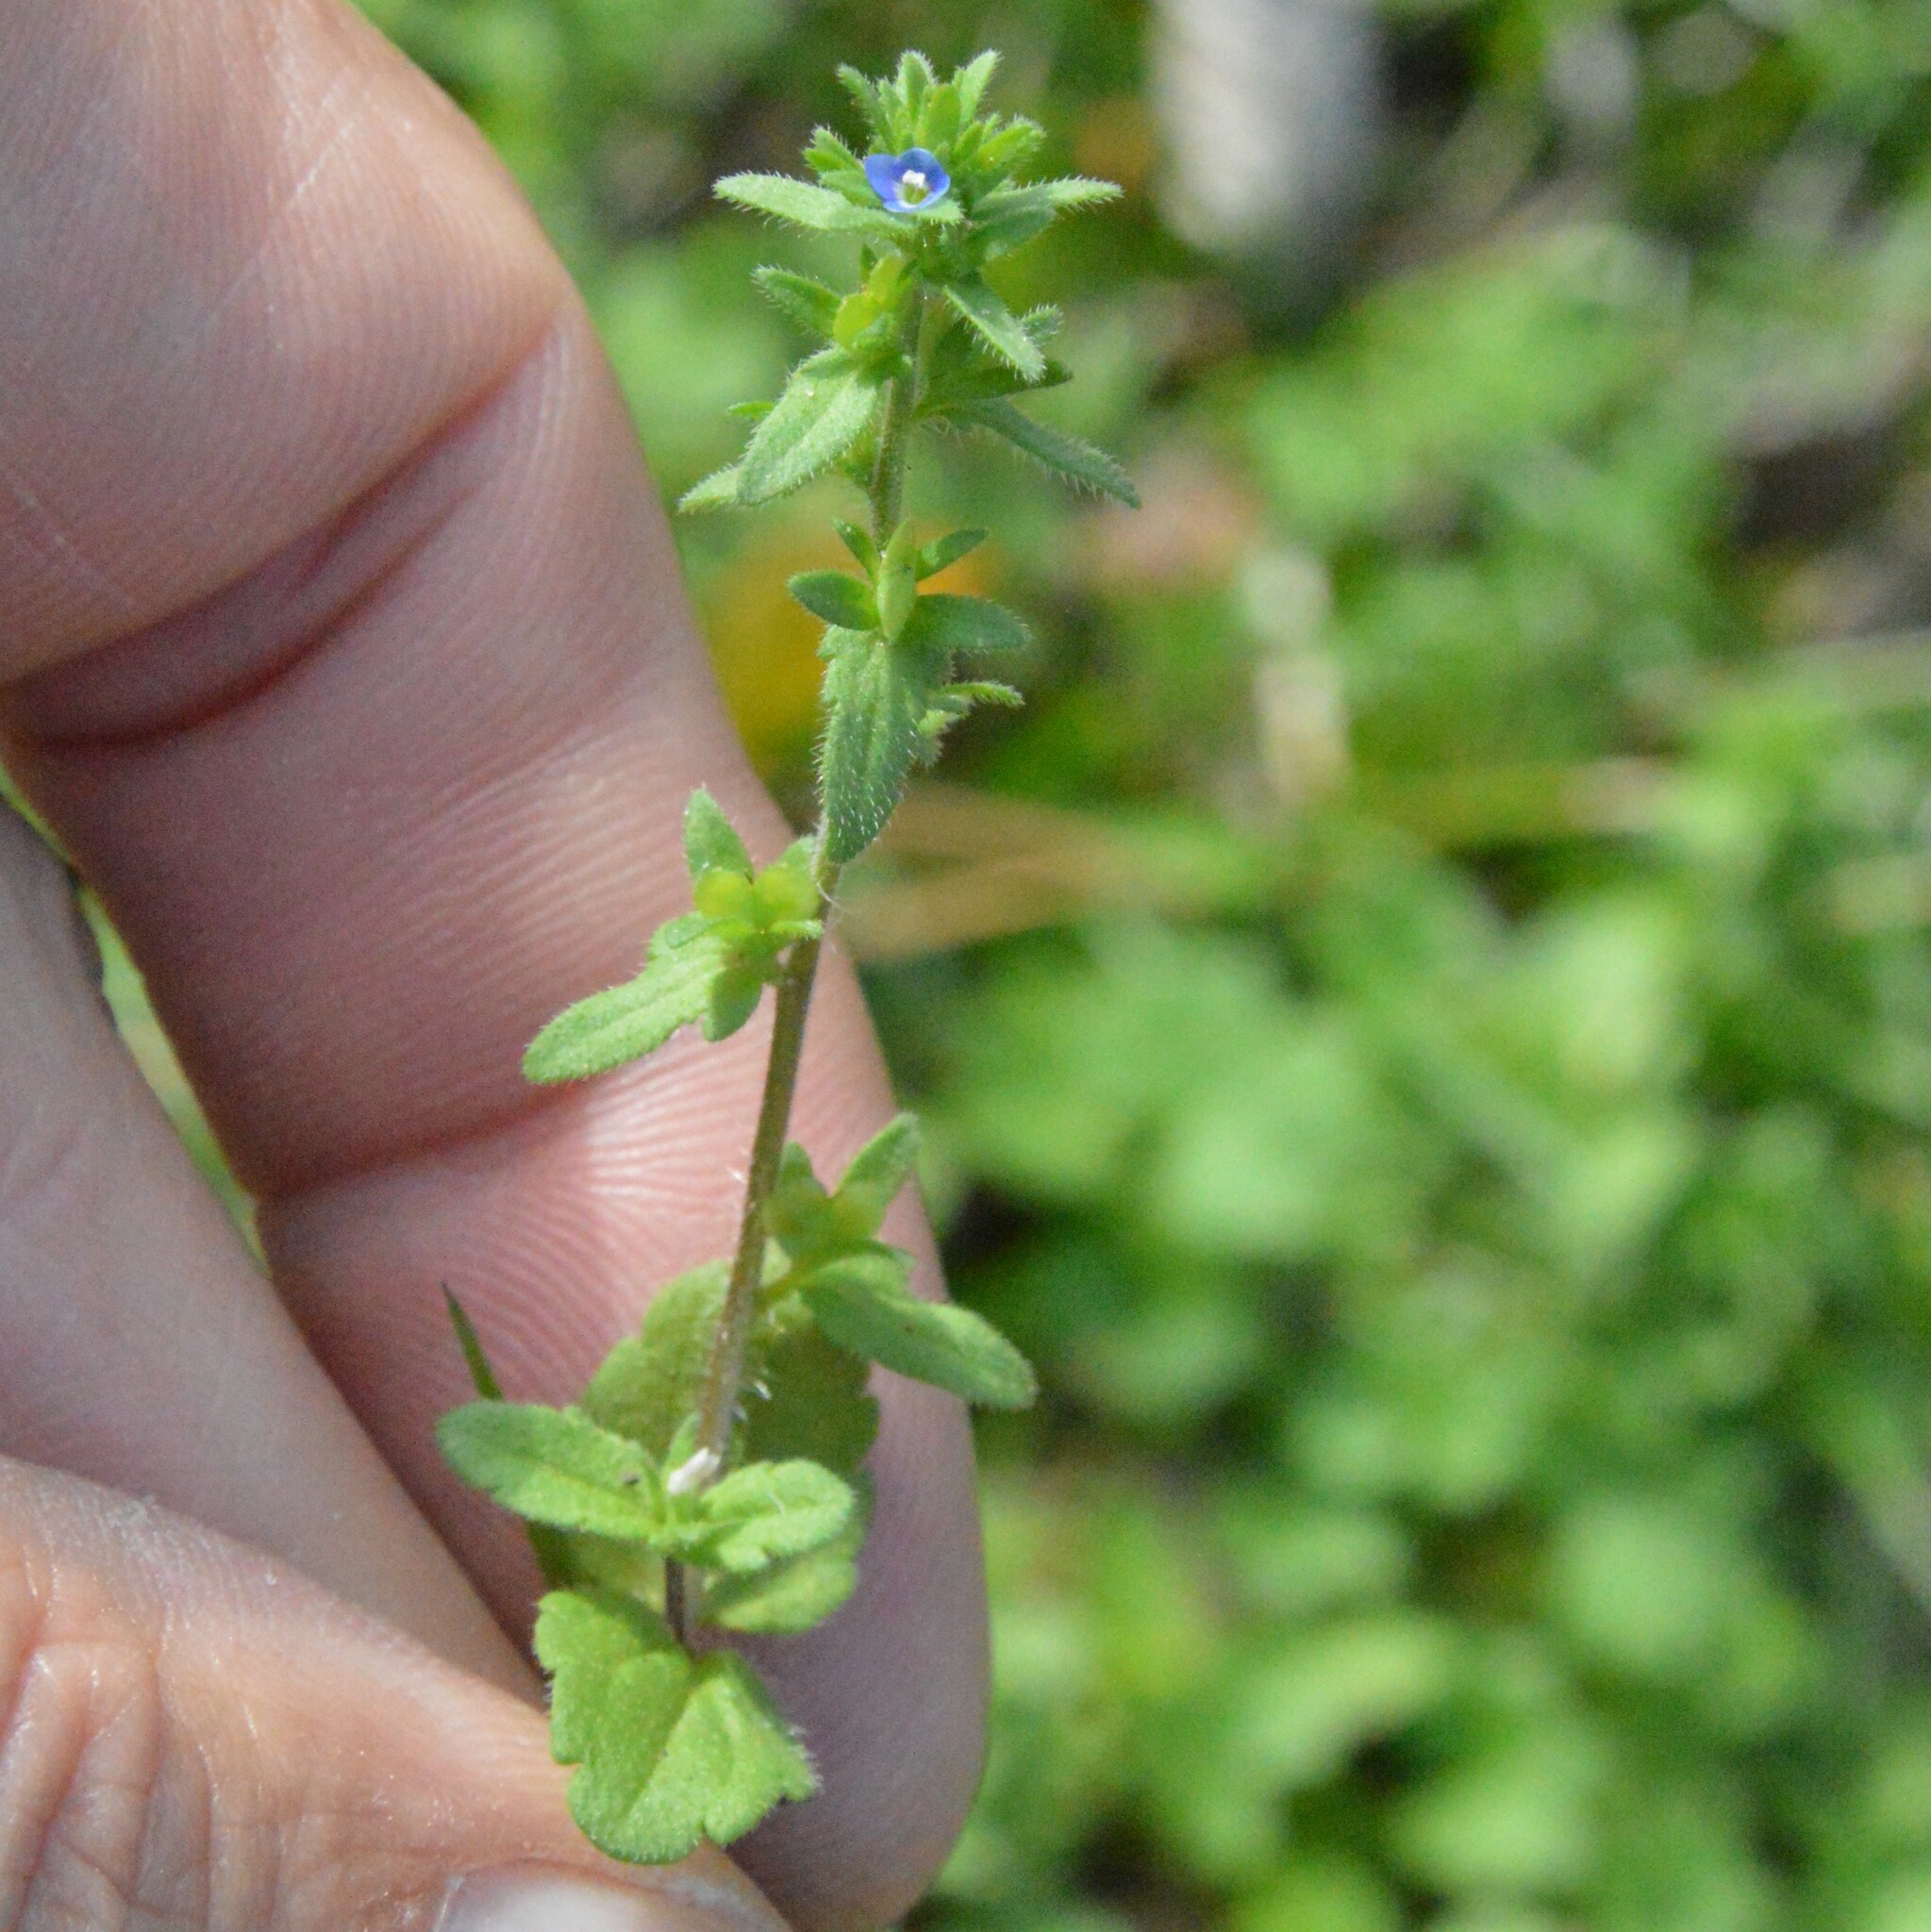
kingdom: Plantae
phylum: Tracheophyta
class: Magnoliopsida
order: Lamiales
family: Plantaginaceae
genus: Veronica
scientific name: Veronica arvensis
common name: Corn speedwell
